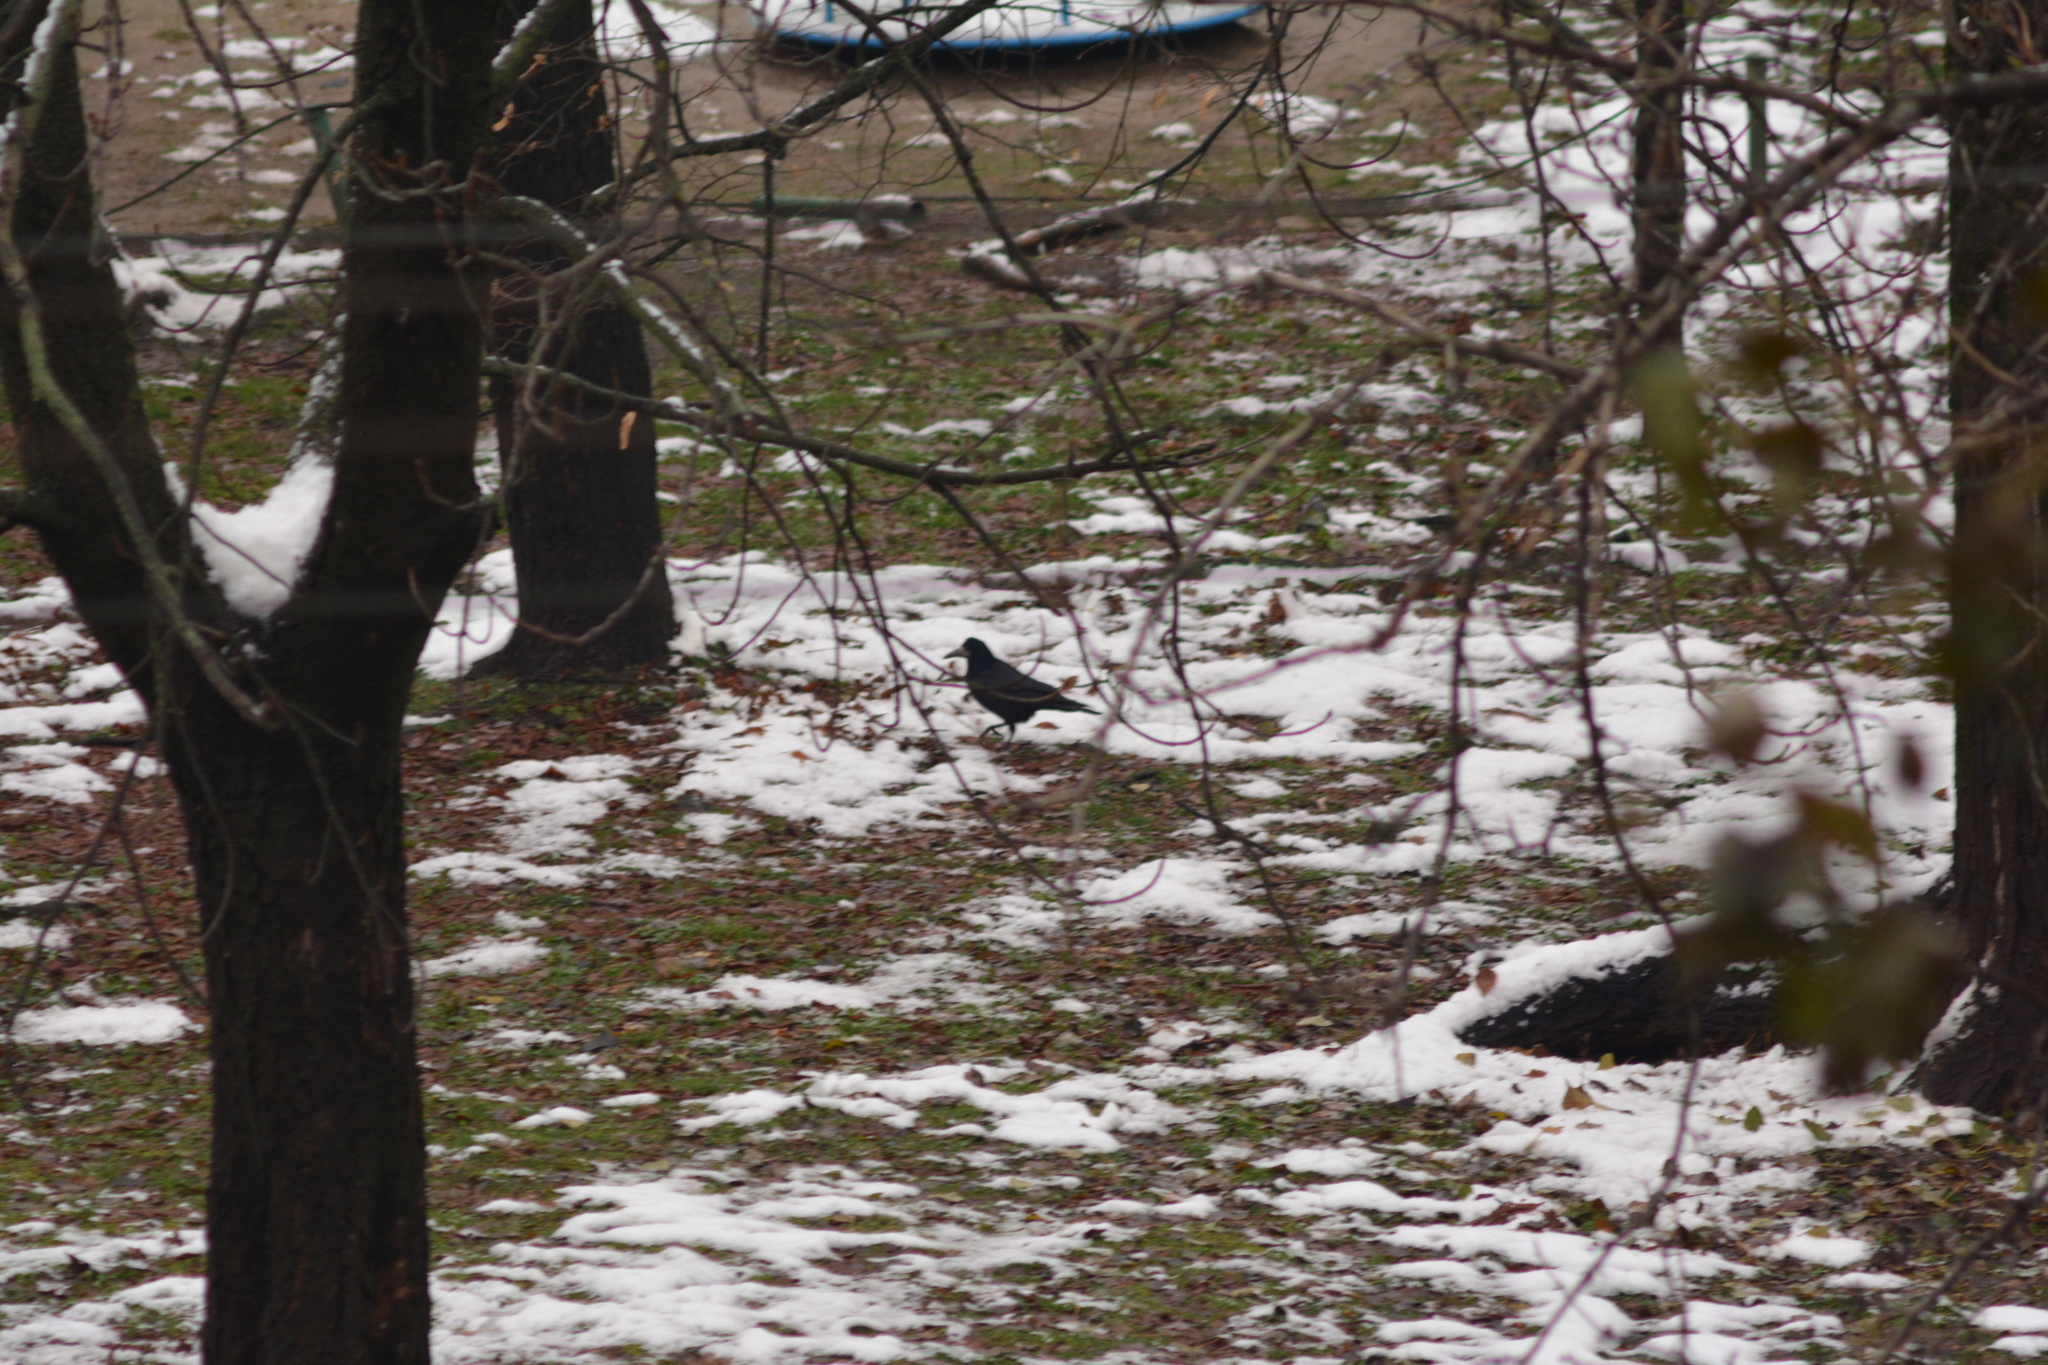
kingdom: Animalia
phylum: Chordata
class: Aves
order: Passeriformes
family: Corvidae
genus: Corvus
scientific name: Corvus frugilegus
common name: Rook
